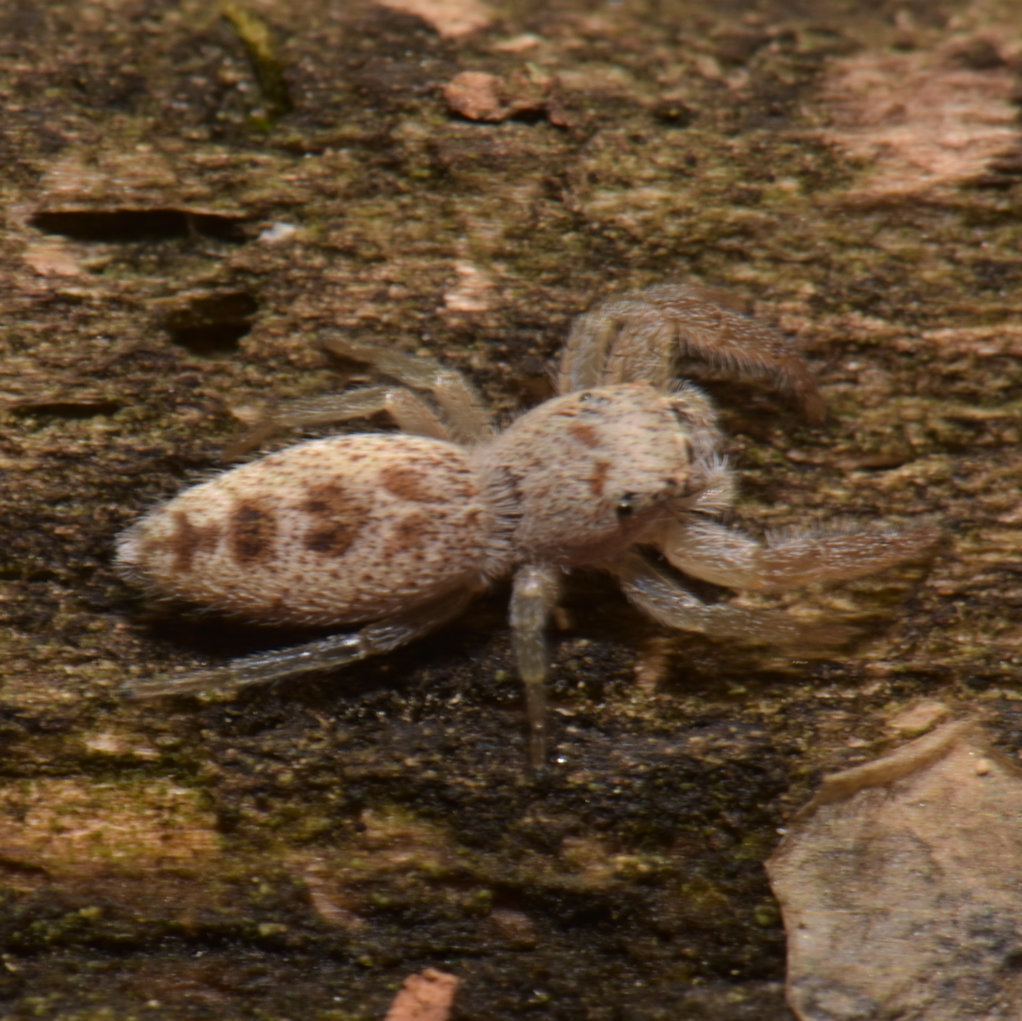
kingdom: Animalia
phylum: Arthropoda
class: Arachnida
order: Araneae
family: Salticidae
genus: Hentzia
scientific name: Hentzia palmarum
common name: Common hentz jumping spider
